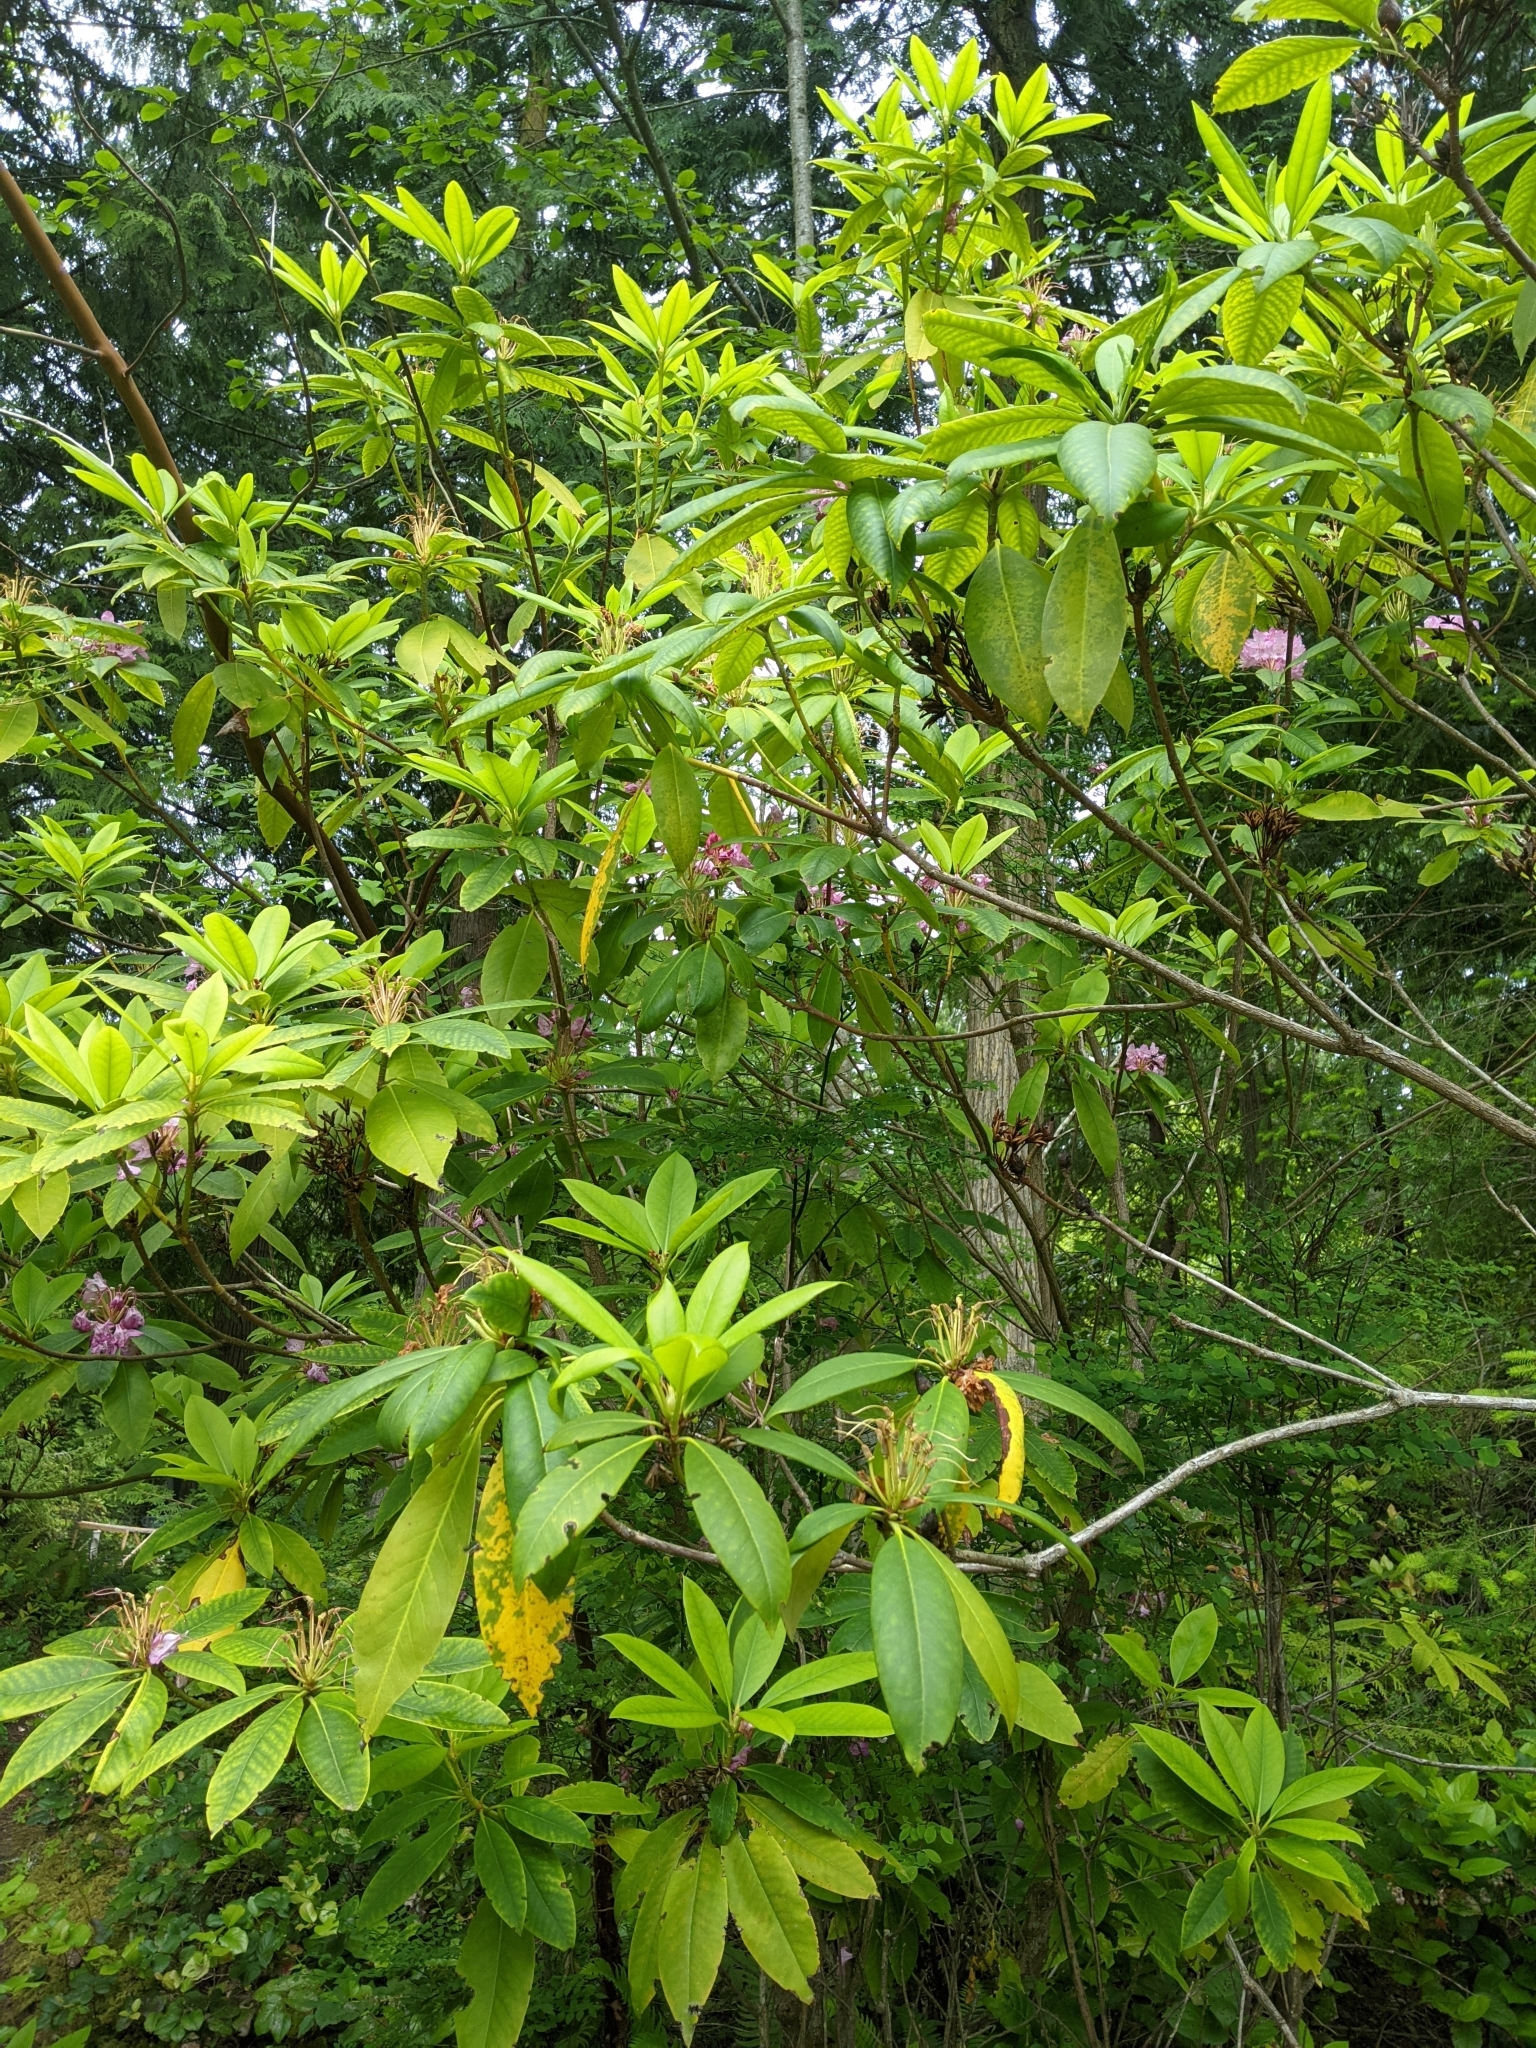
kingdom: Plantae
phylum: Tracheophyta
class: Magnoliopsida
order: Ericales
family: Ericaceae
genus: Rhododendron
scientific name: Rhododendron macrophyllum
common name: California rose bay
